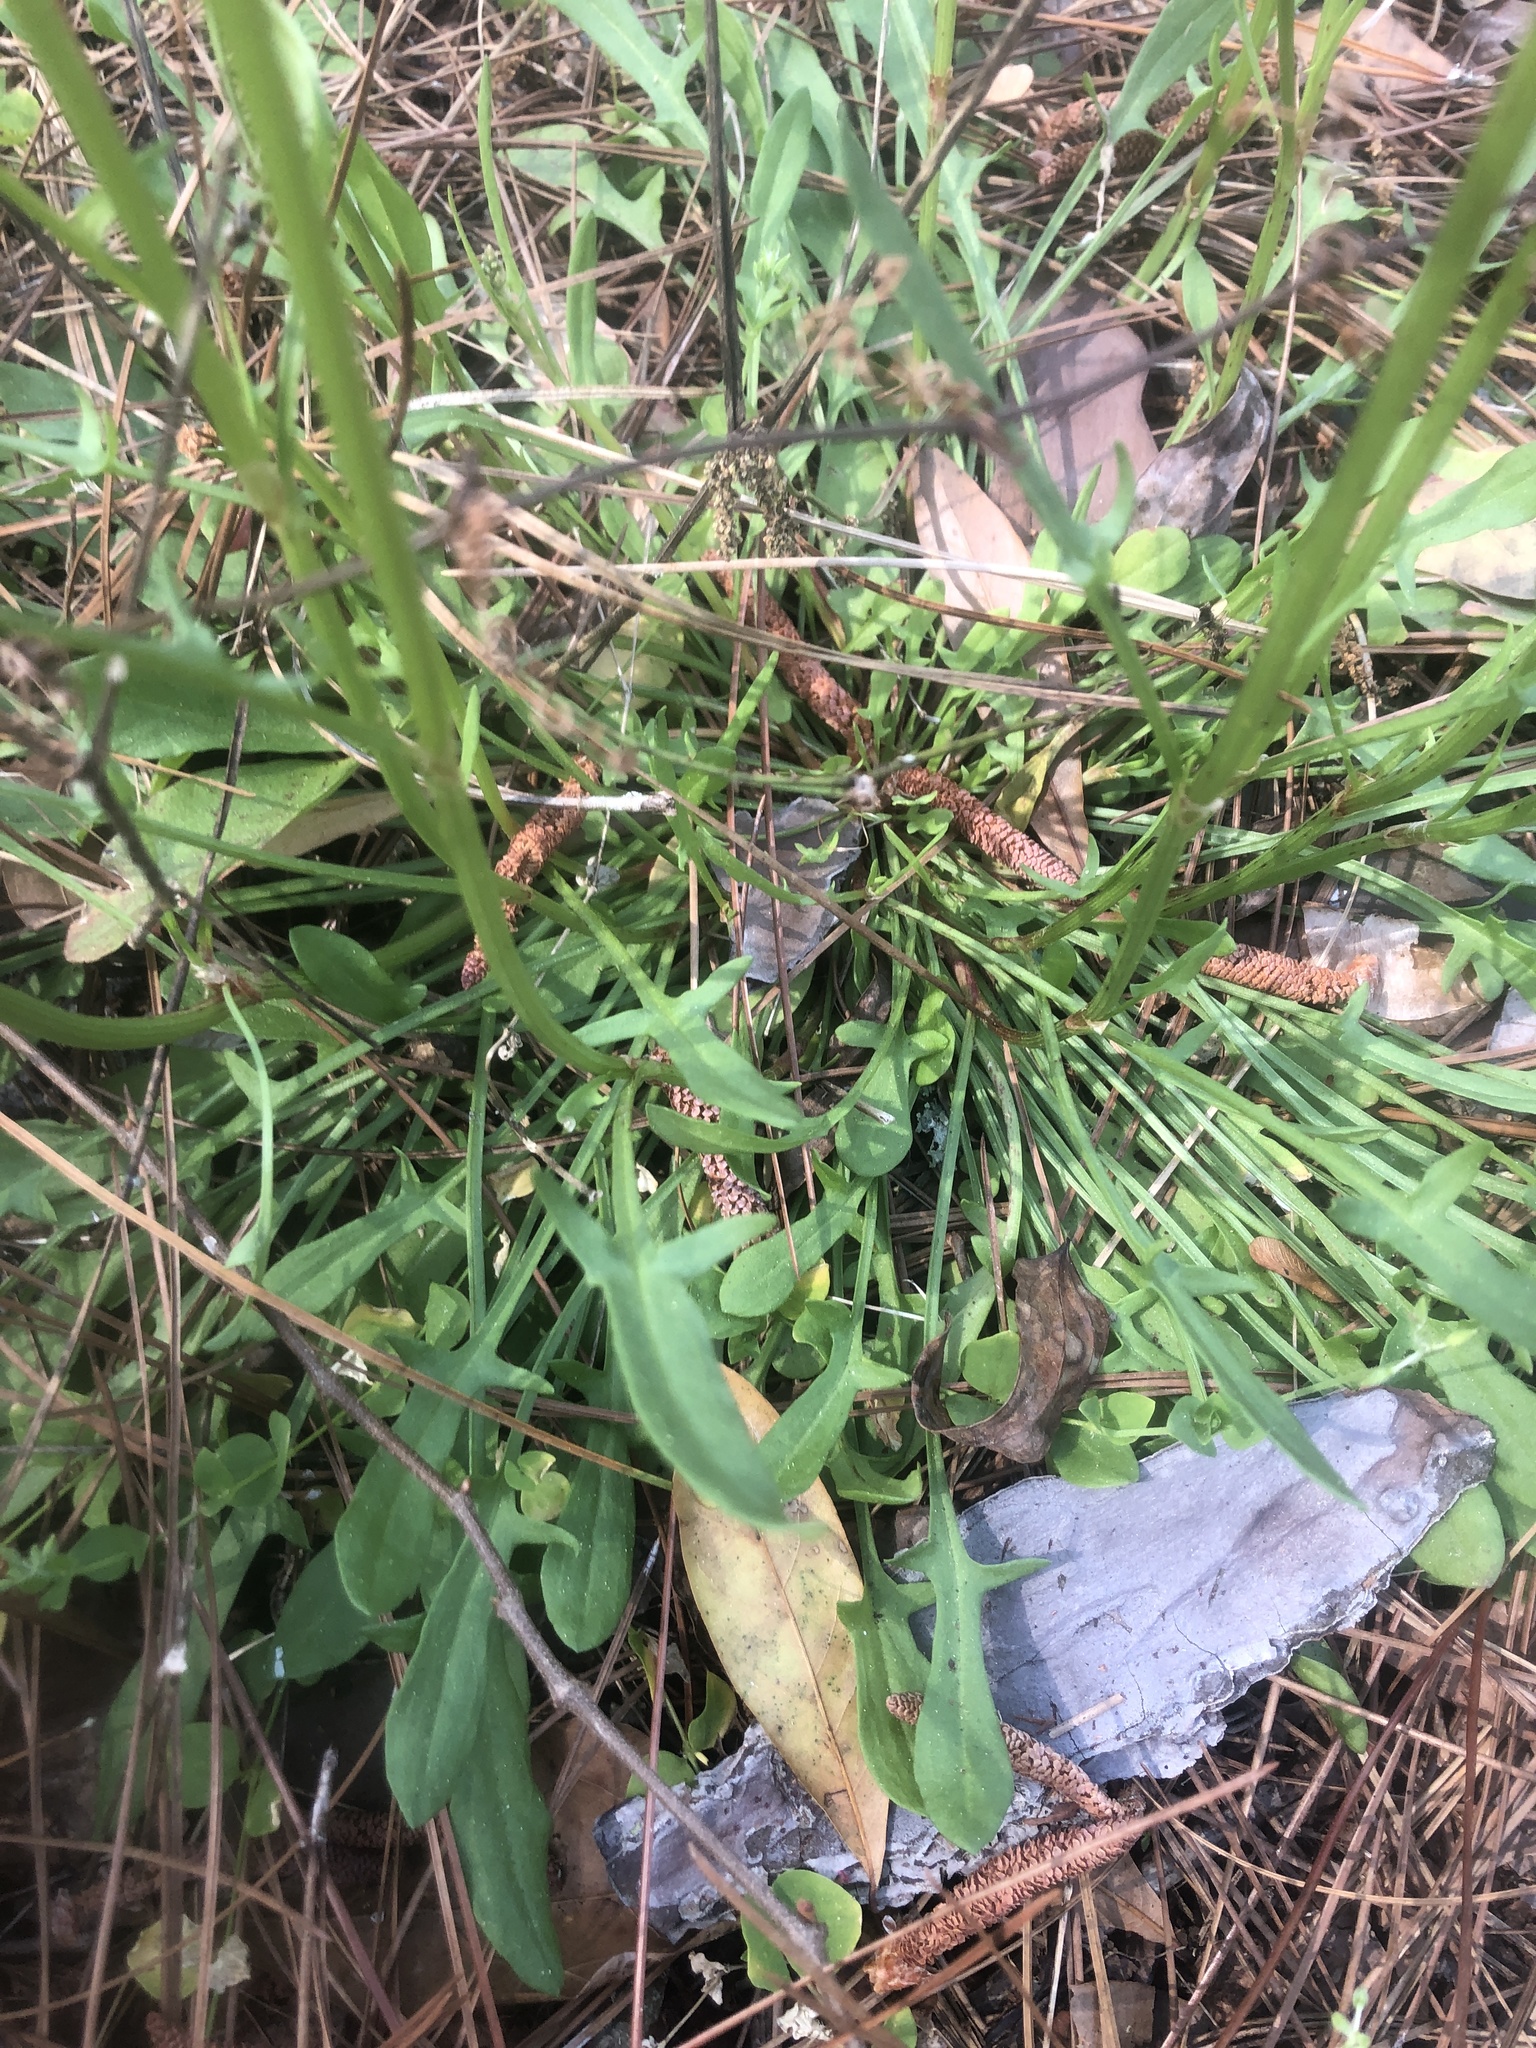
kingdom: Plantae
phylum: Tracheophyta
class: Magnoliopsida
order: Caryophyllales
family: Polygonaceae
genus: Rumex
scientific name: Rumex hastatulus
